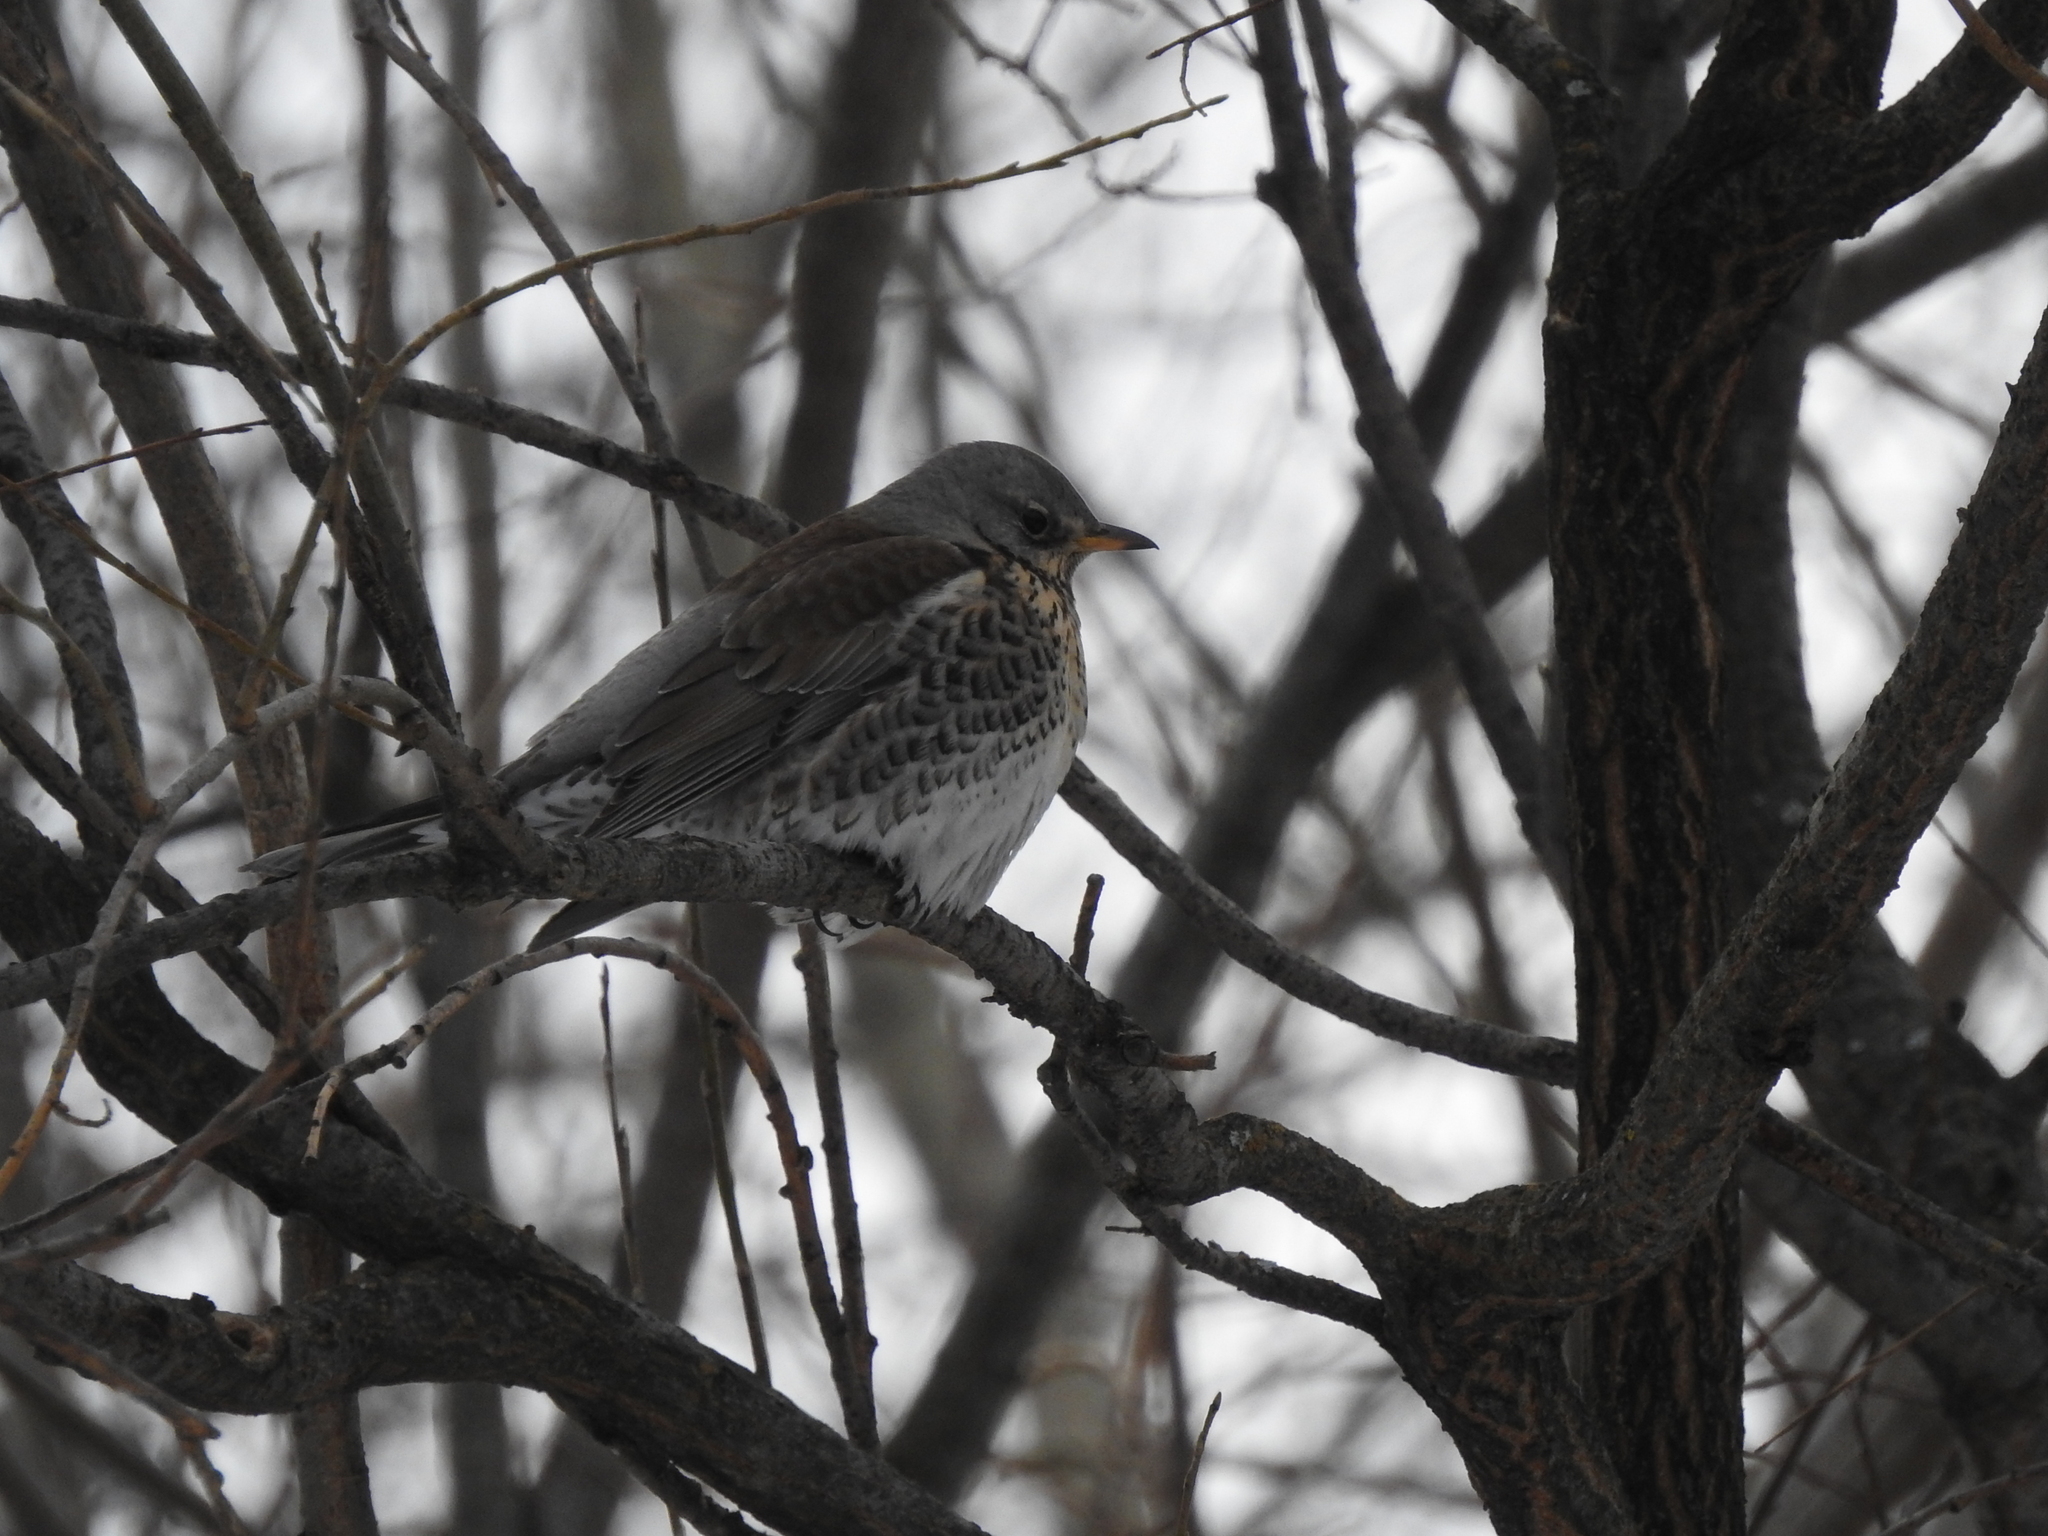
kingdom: Animalia
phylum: Chordata
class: Aves
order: Passeriformes
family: Turdidae
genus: Turdus
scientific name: Turdus pilaris
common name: Fieldfare
